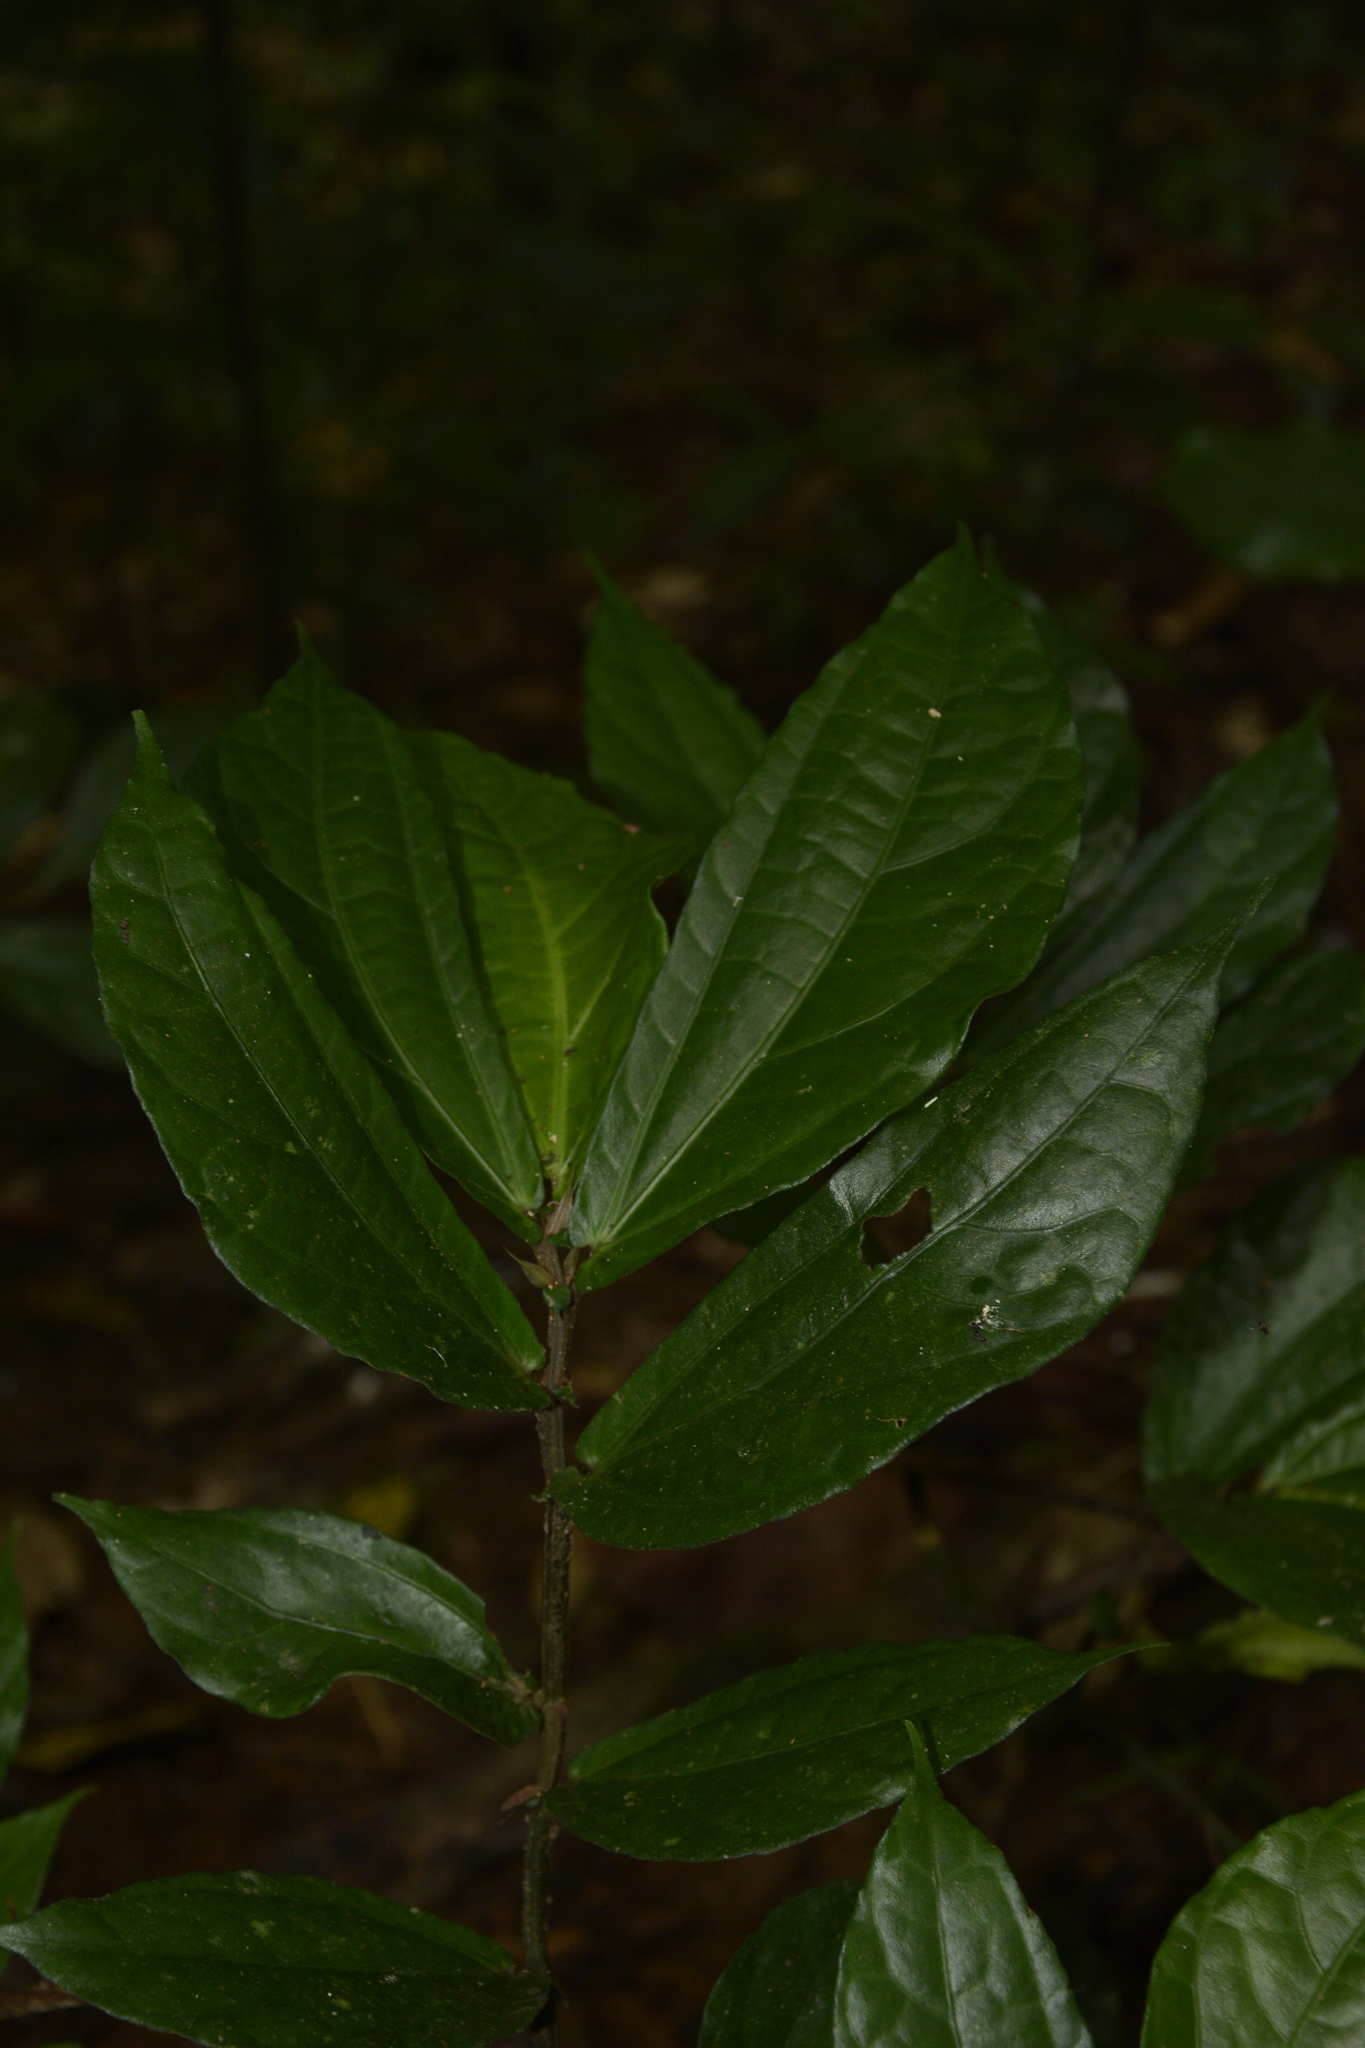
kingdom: Plantae
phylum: Tracheophyta
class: Magnoliopsida
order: Rosales
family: Urticaceae
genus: Elatostema
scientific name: Elatostema lineolatum
